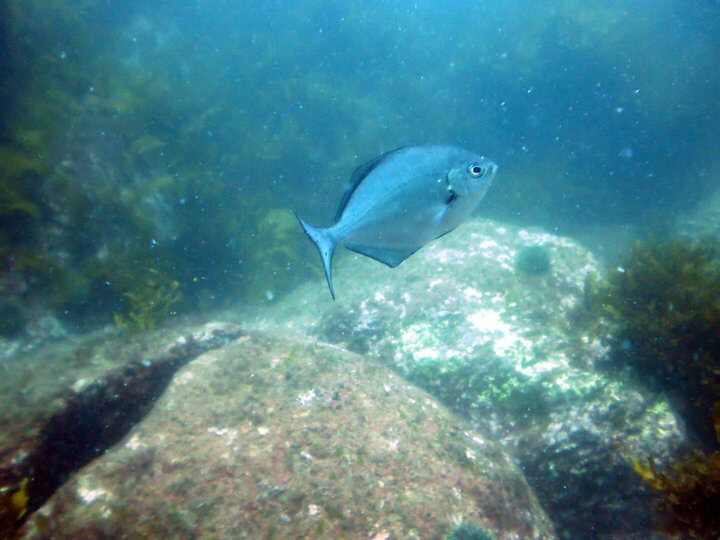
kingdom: Animalia
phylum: Chordata
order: Perciformes
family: Kyphosidae
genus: Scorpis
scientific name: Scorpis lineolata
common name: Sweep
